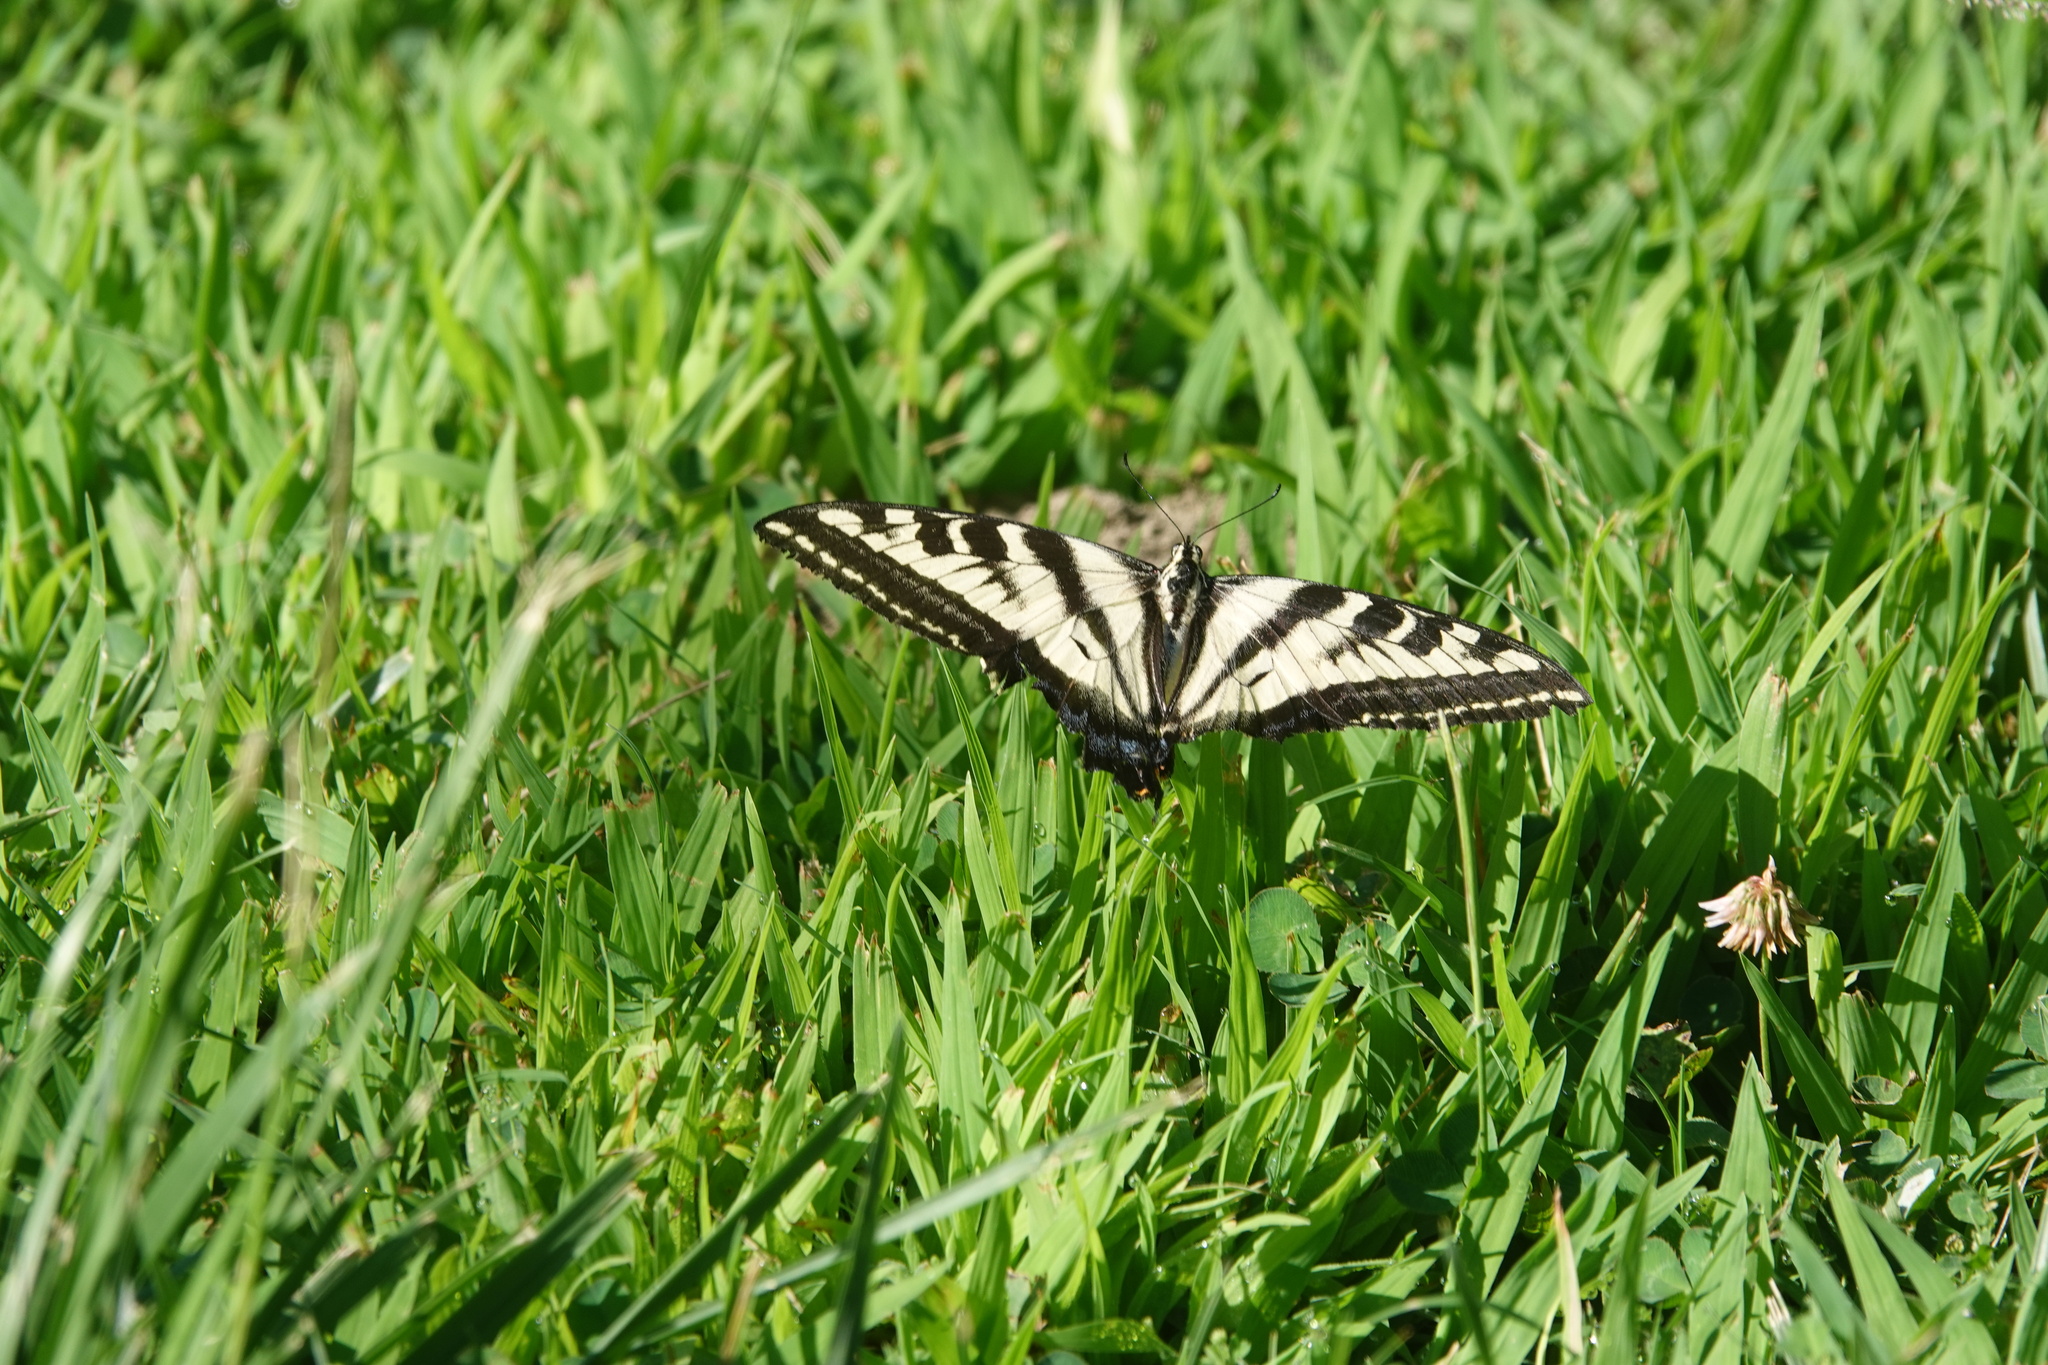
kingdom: Animalia
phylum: Arthropoda
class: Insecta
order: Lepidoptera
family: Papilionidae
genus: Papilio
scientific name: Papilio eurymedon
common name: Pale tiger swallowtail
